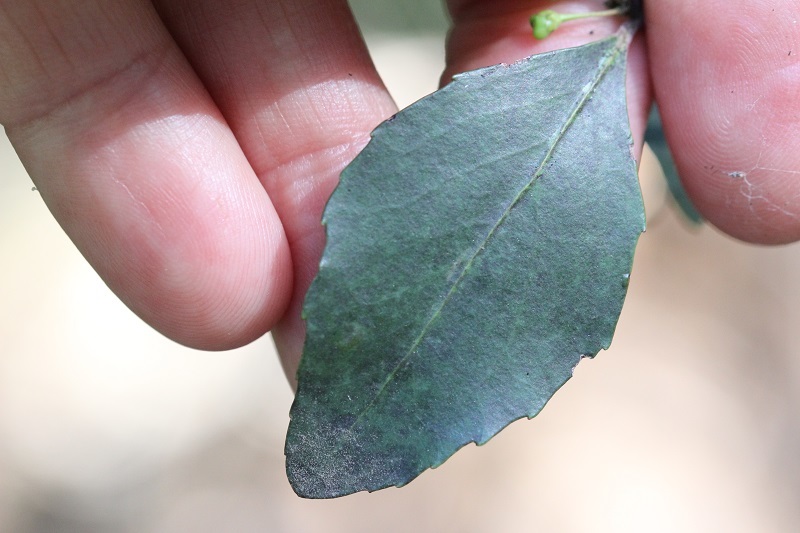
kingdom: Plantae
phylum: Tracheophyta
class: Magnoliopsida
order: Celastrales
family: Celastraceae
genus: Gymnosporia
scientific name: Gymnosporia acuminata
